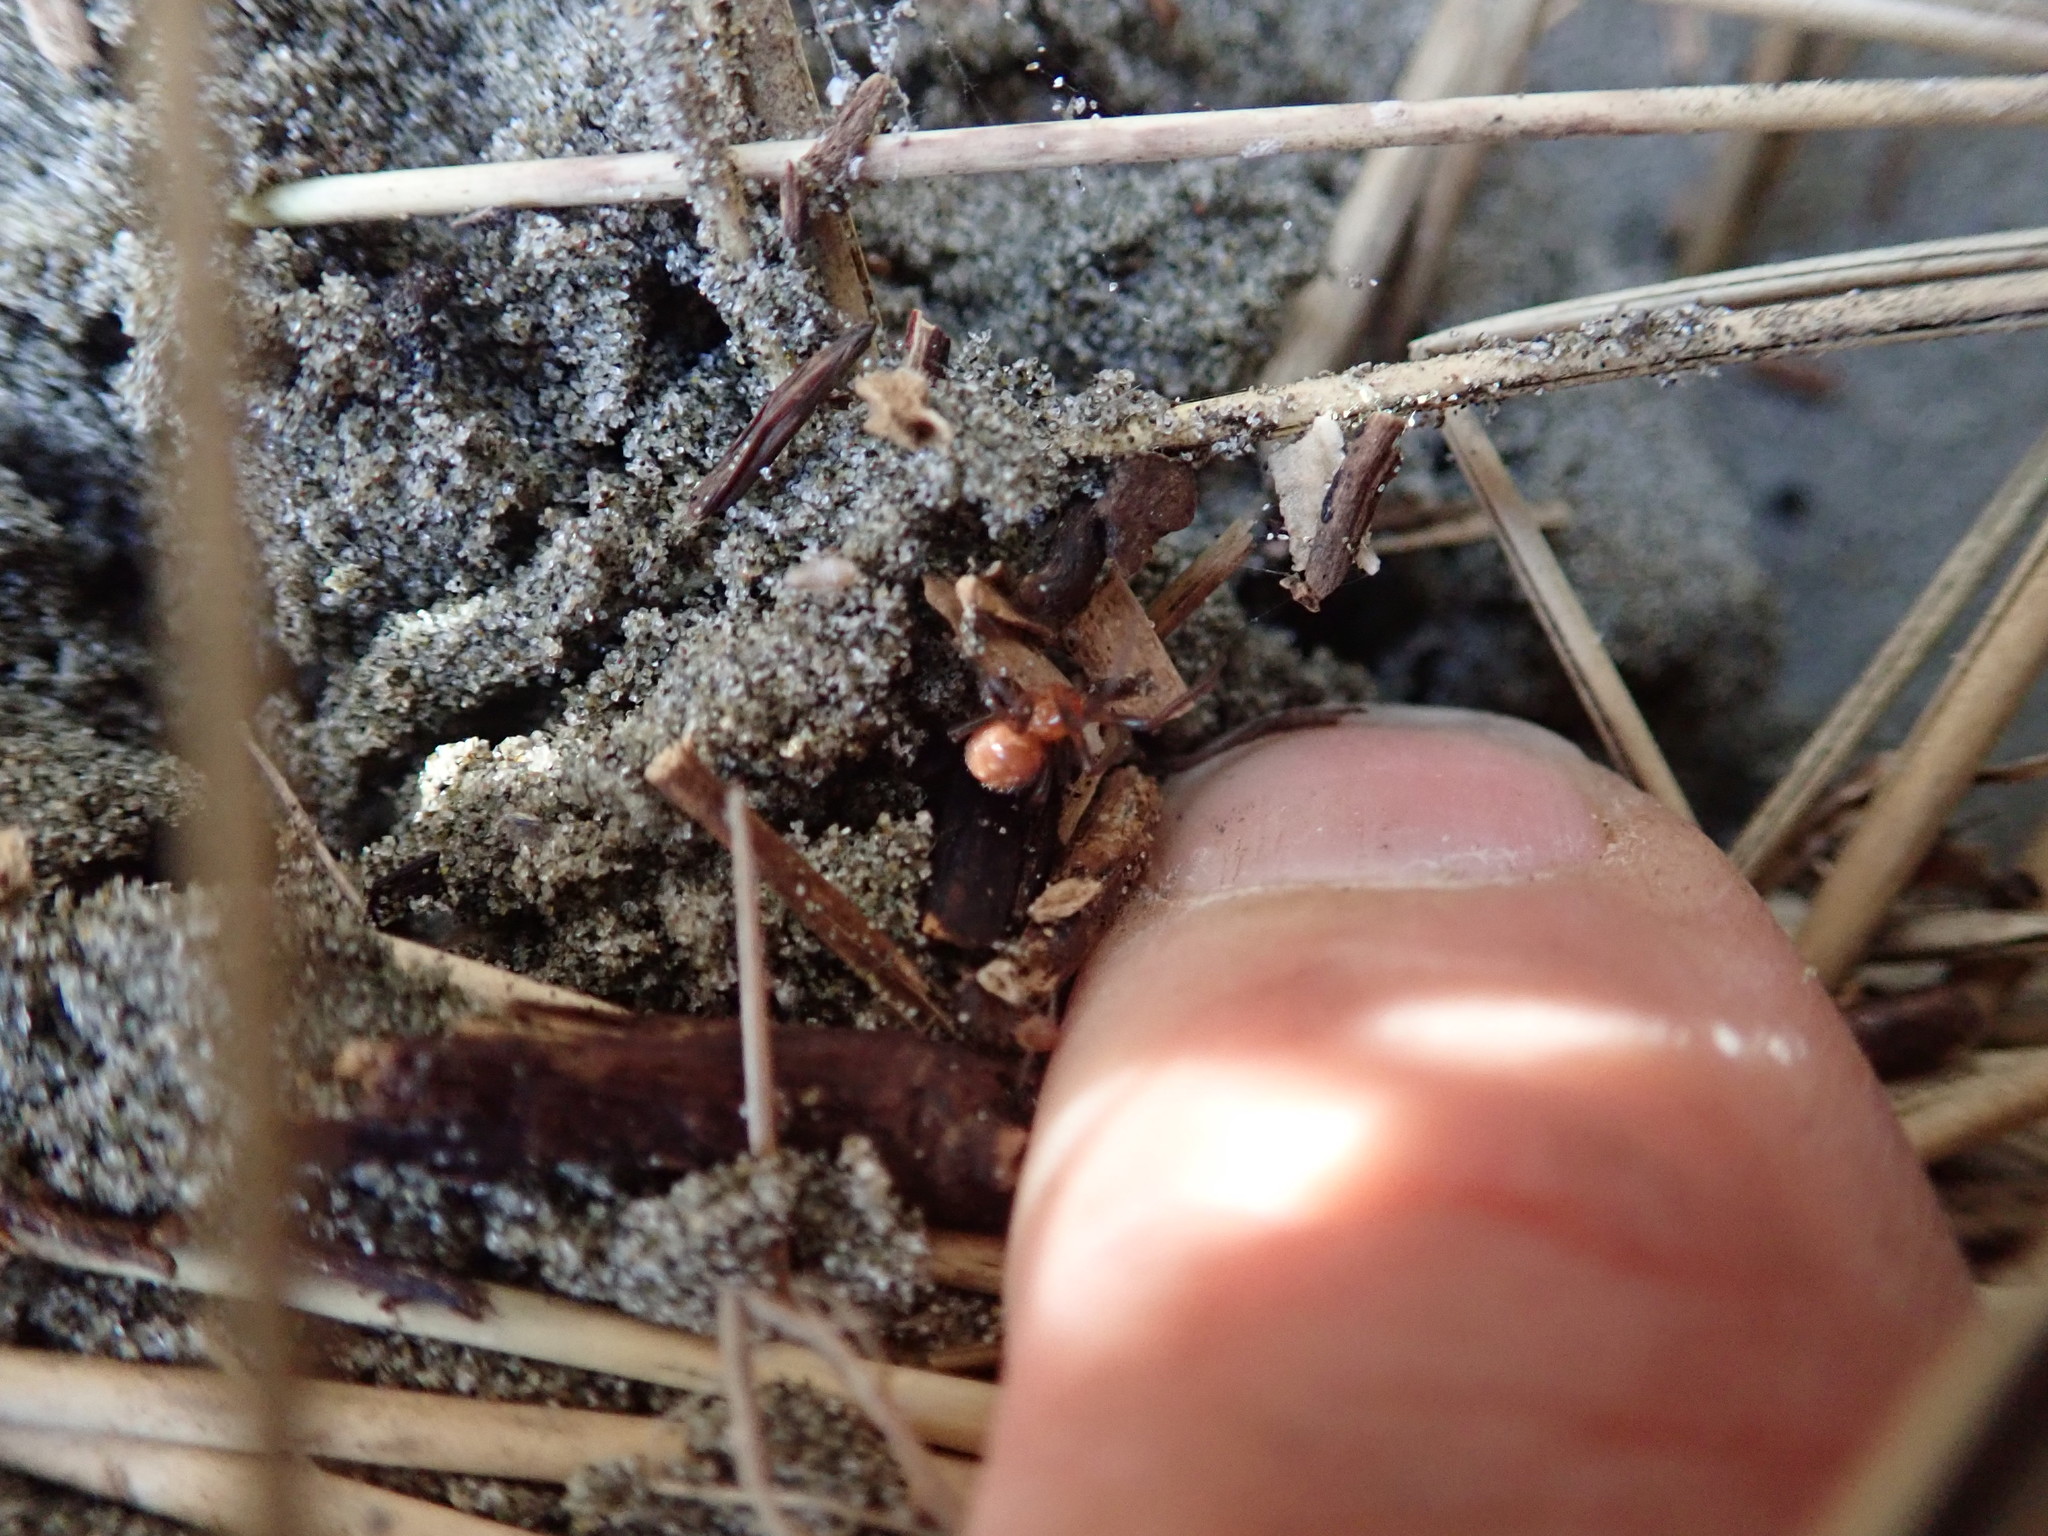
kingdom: Animalia
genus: Lagrioda
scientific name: Lagrioda brounii
